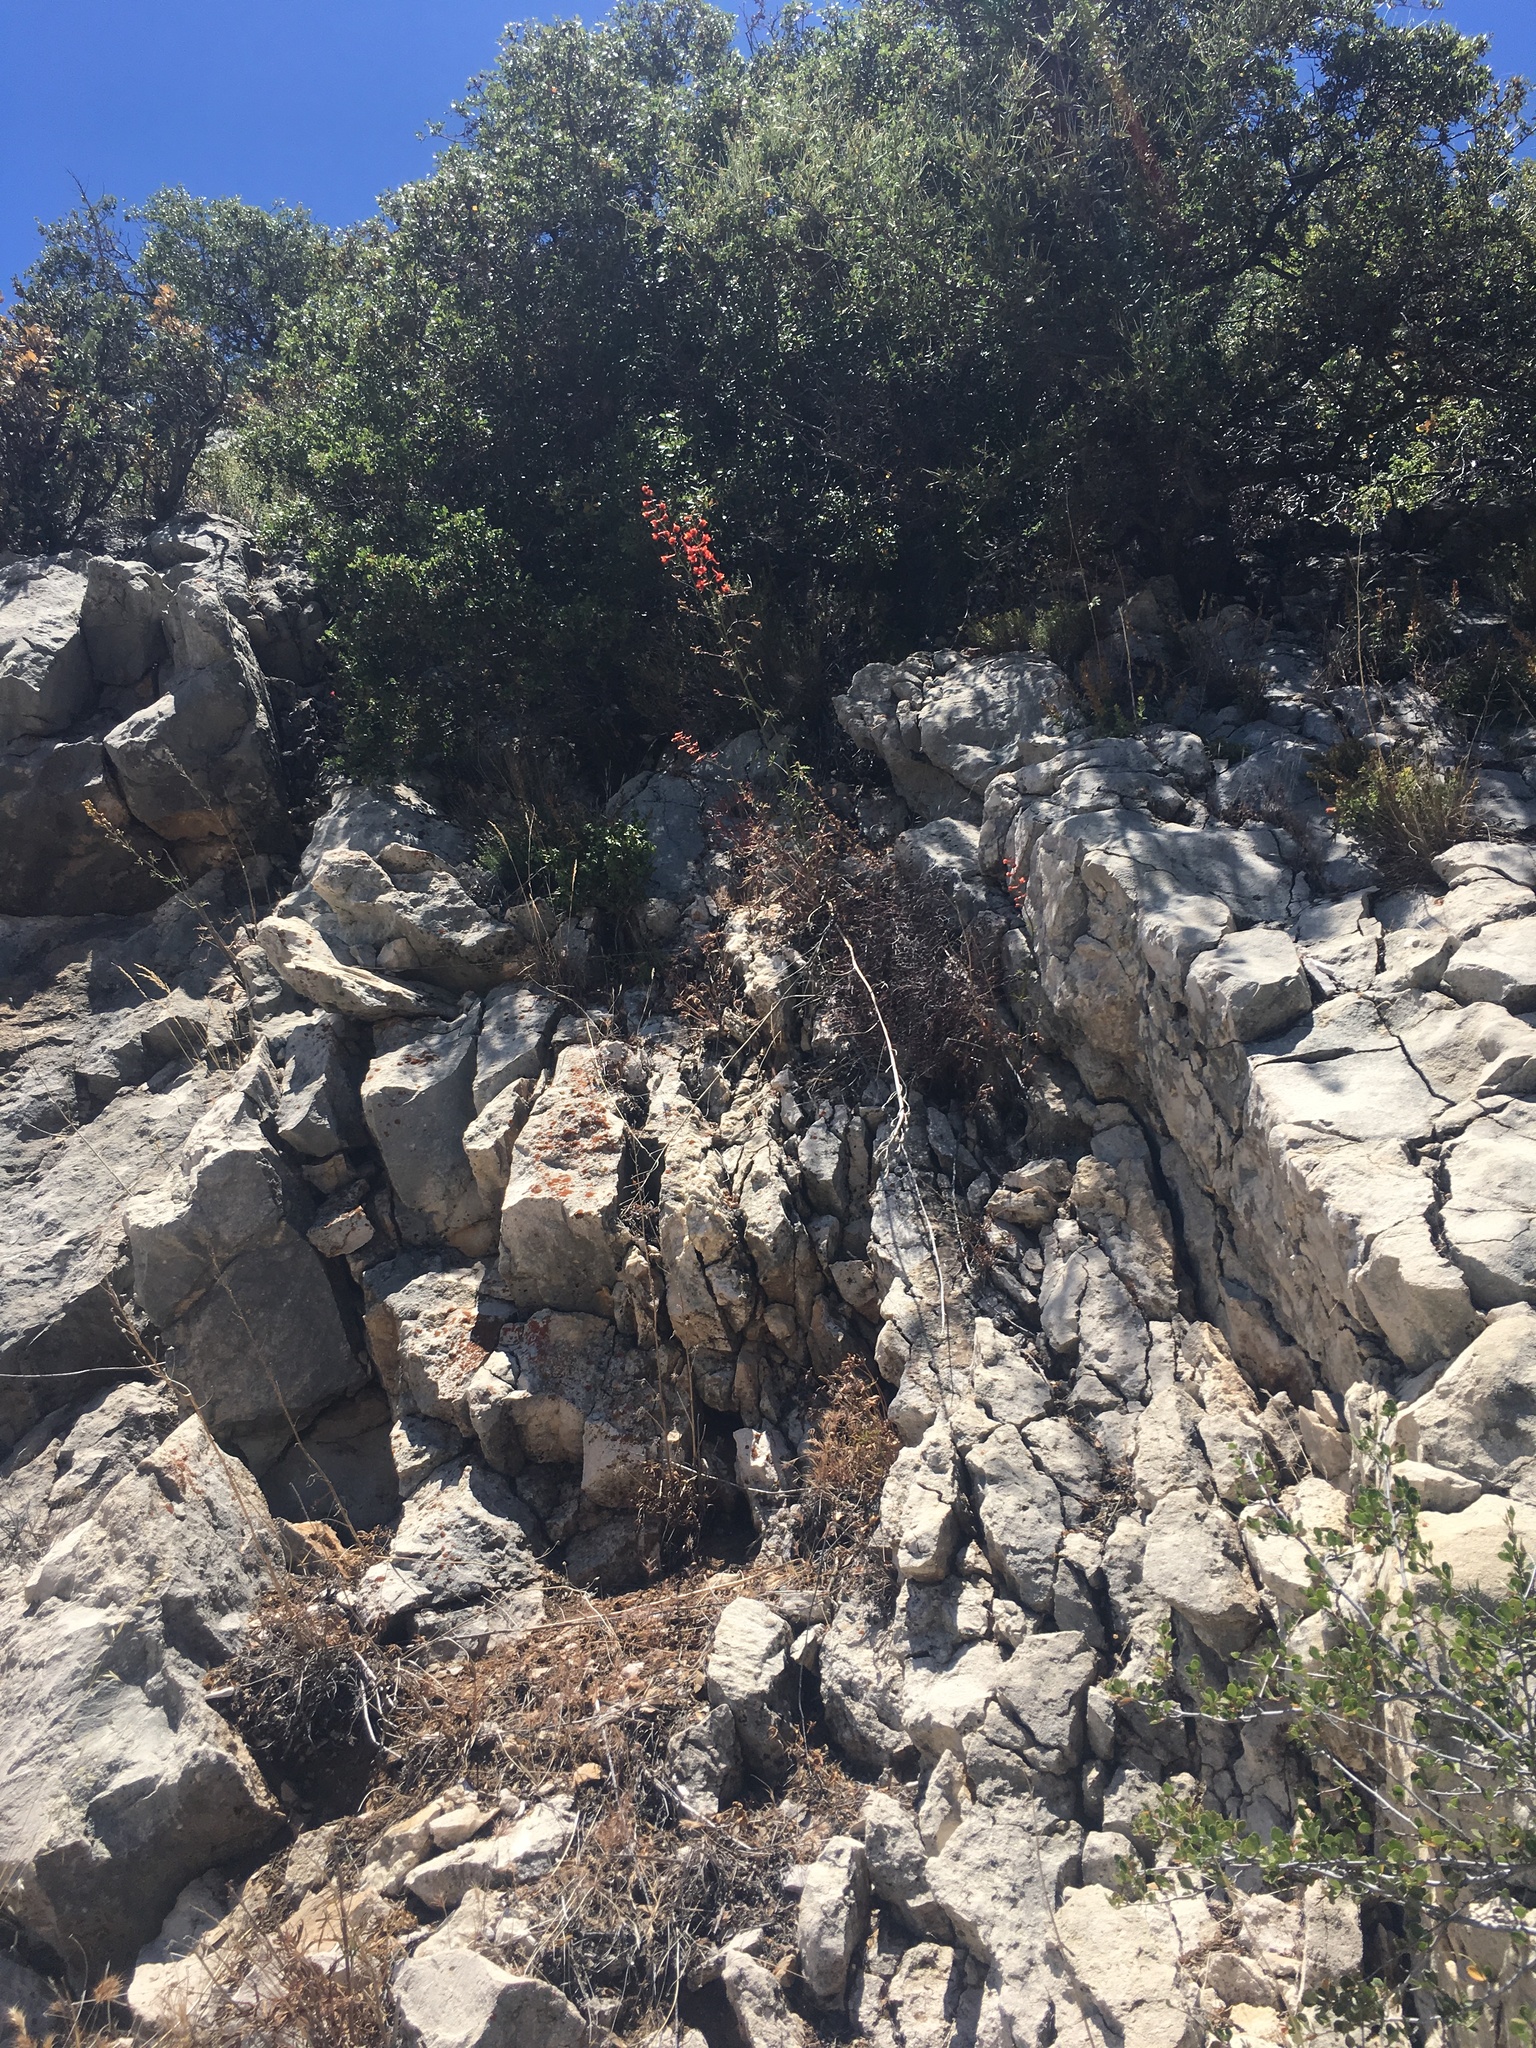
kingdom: Plantae
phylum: Tracheophyta
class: Magnoliopsida
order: Ranunculales
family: Ranunculaceae
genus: Delphinium
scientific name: Delphinium cardinale
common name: Scarlet larkspur
